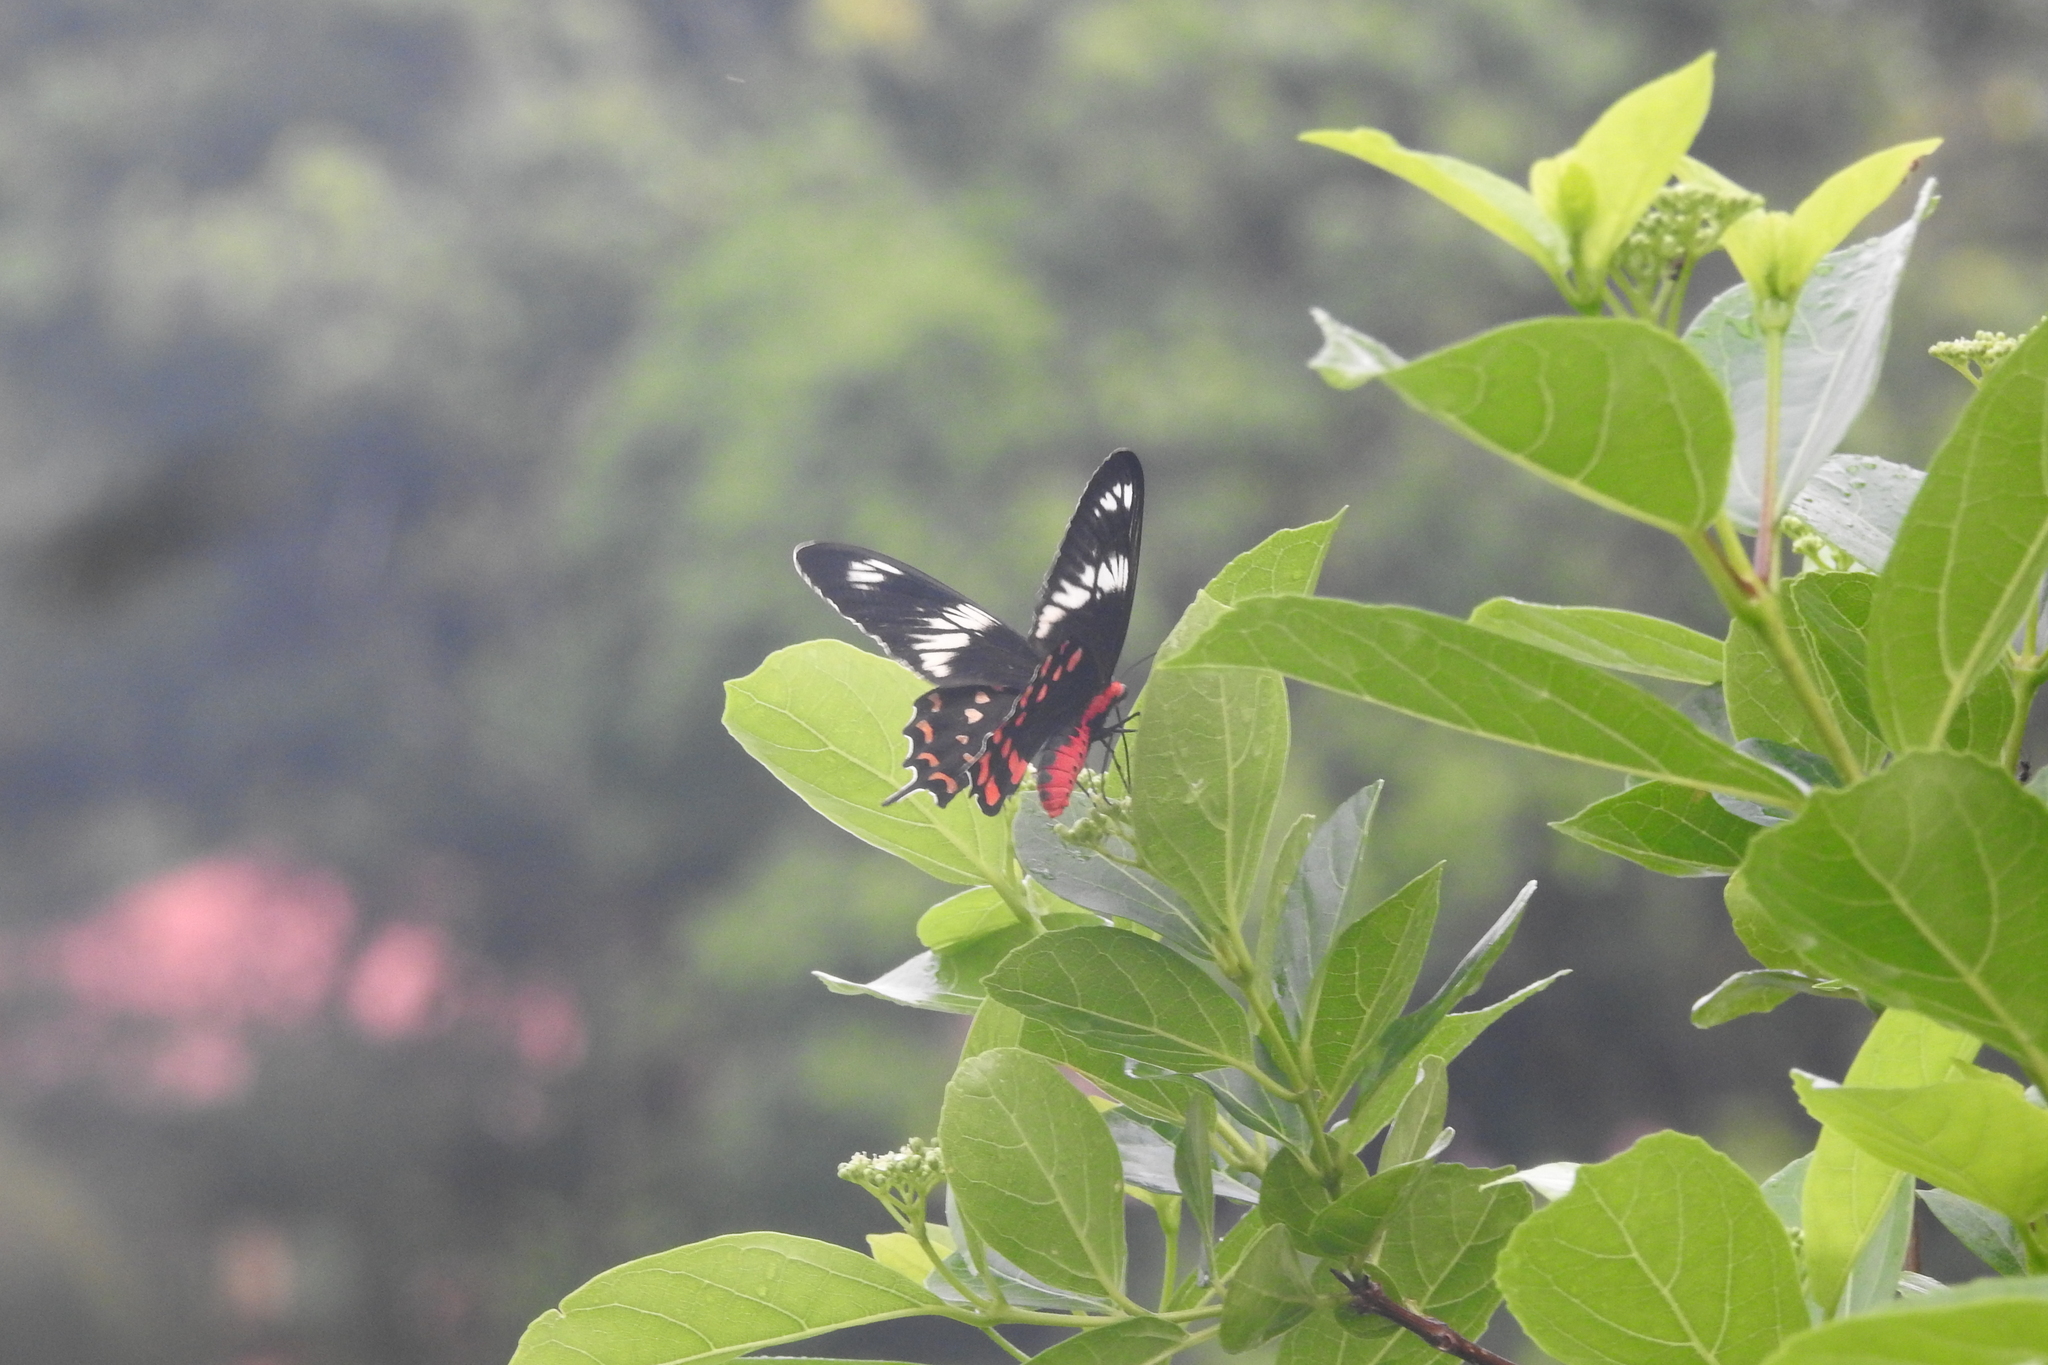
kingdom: Animalia
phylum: Arthropoda
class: Insecta
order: Lepidoptera
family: Papilionidae
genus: Pachliopta
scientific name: Pachliopta hector
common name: Crimson rose
